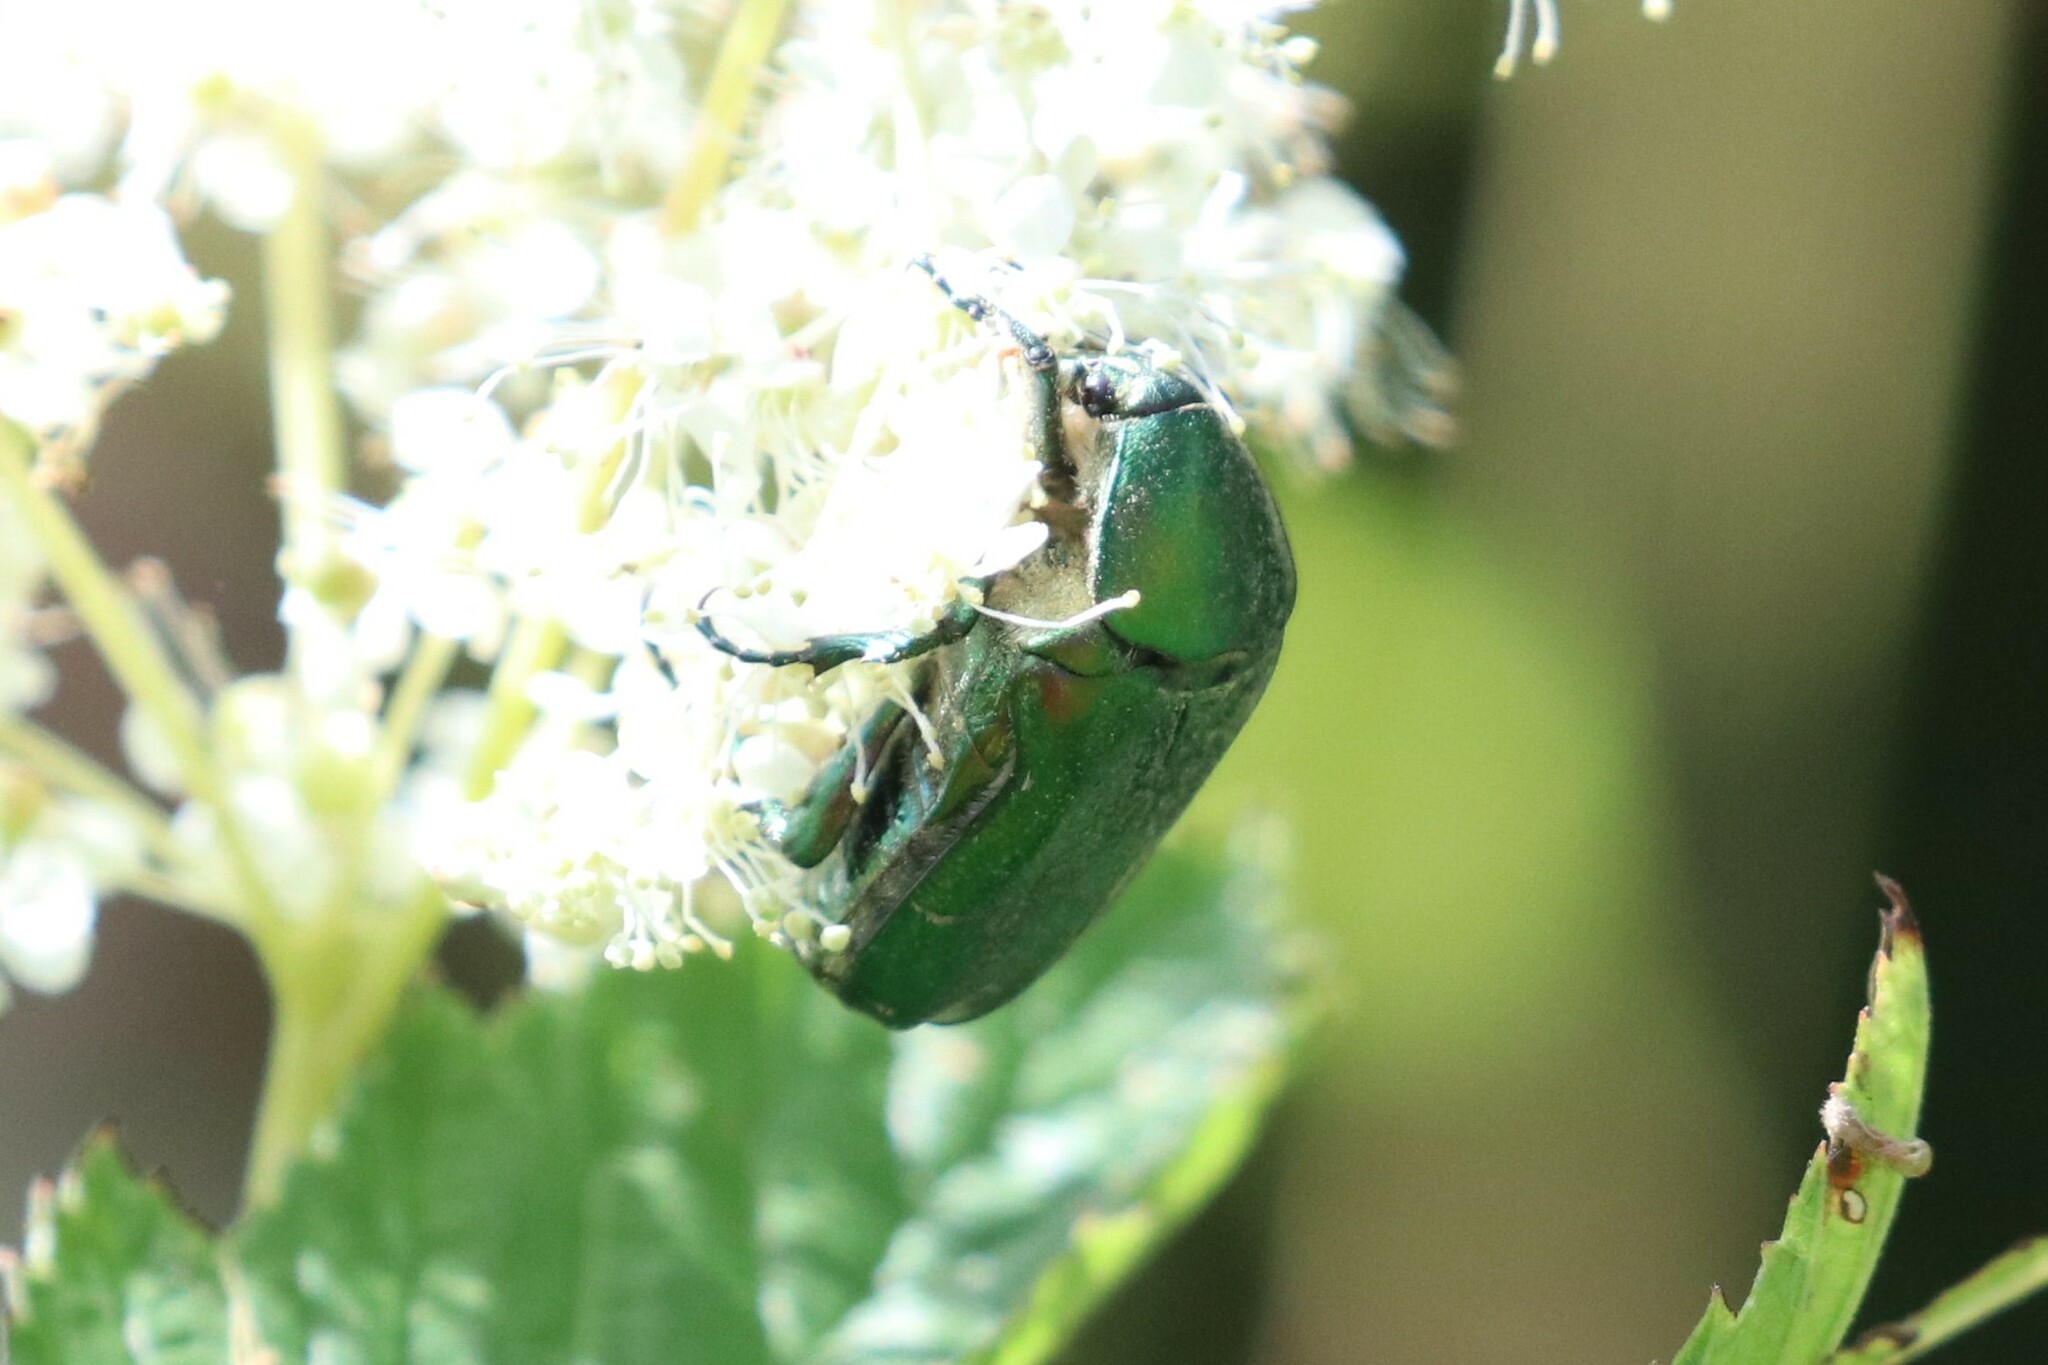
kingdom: Animalia
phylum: Arthropoda
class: Insecta
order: Coleoptera
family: Scarabaeidae
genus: Cetonia
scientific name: Cetonia aurata
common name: Rose chafer
